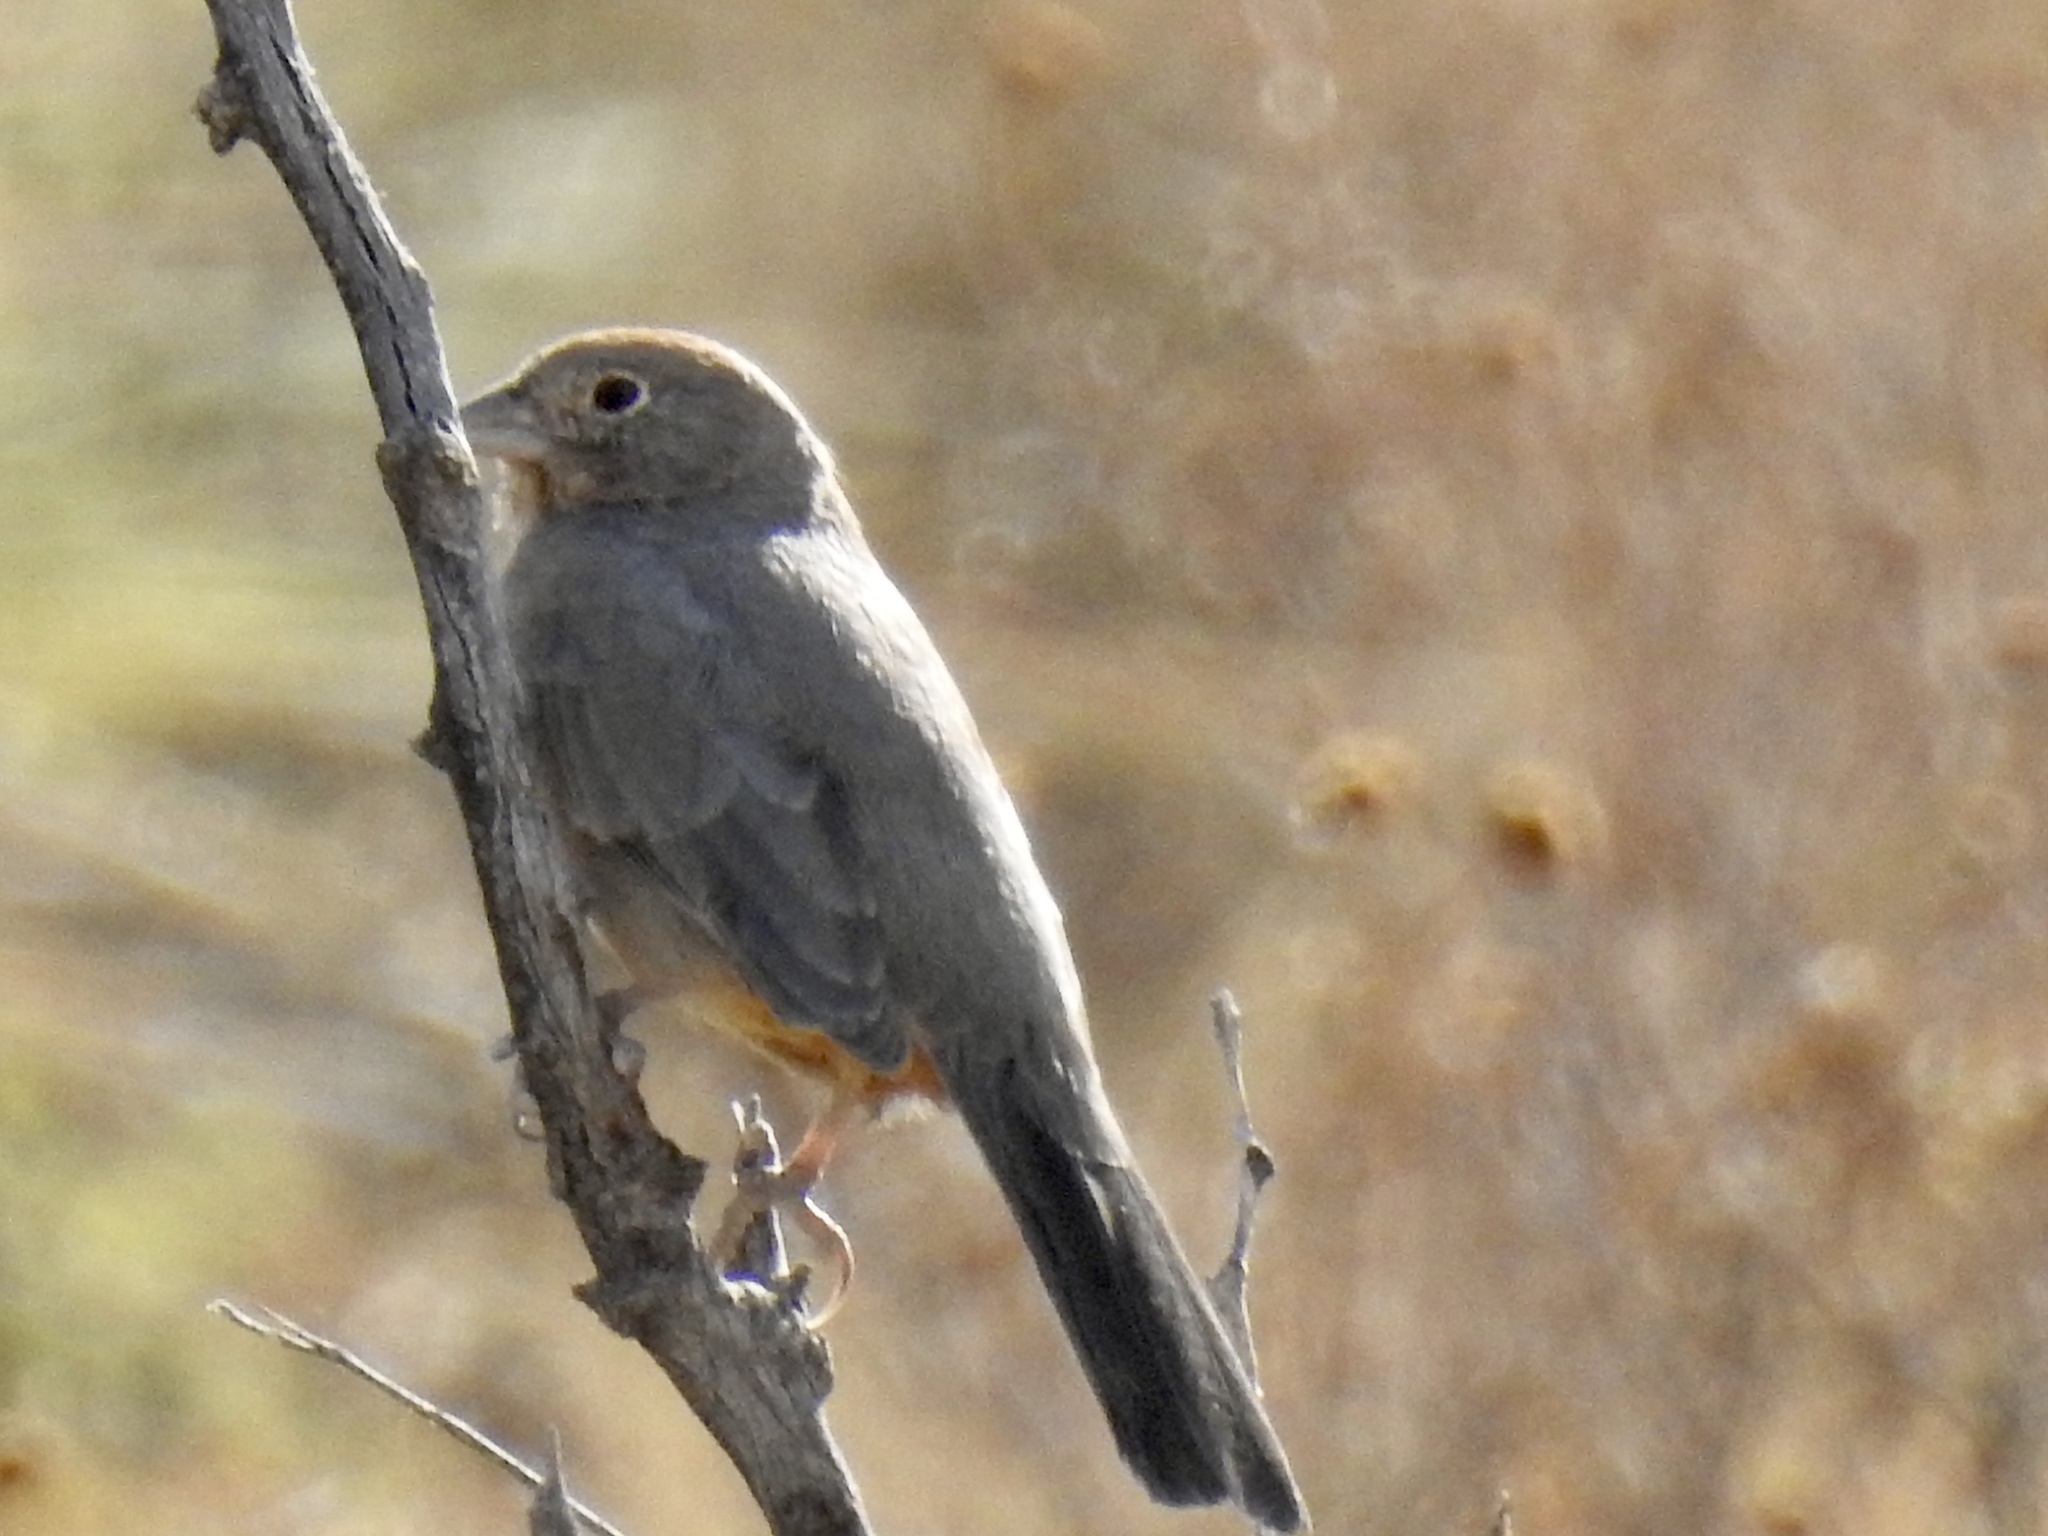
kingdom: Animalia
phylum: Chordata
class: Aves
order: Passeriformes
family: Passerellidae
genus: Melozone
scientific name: Melozone fusca
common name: Canyon towhee
